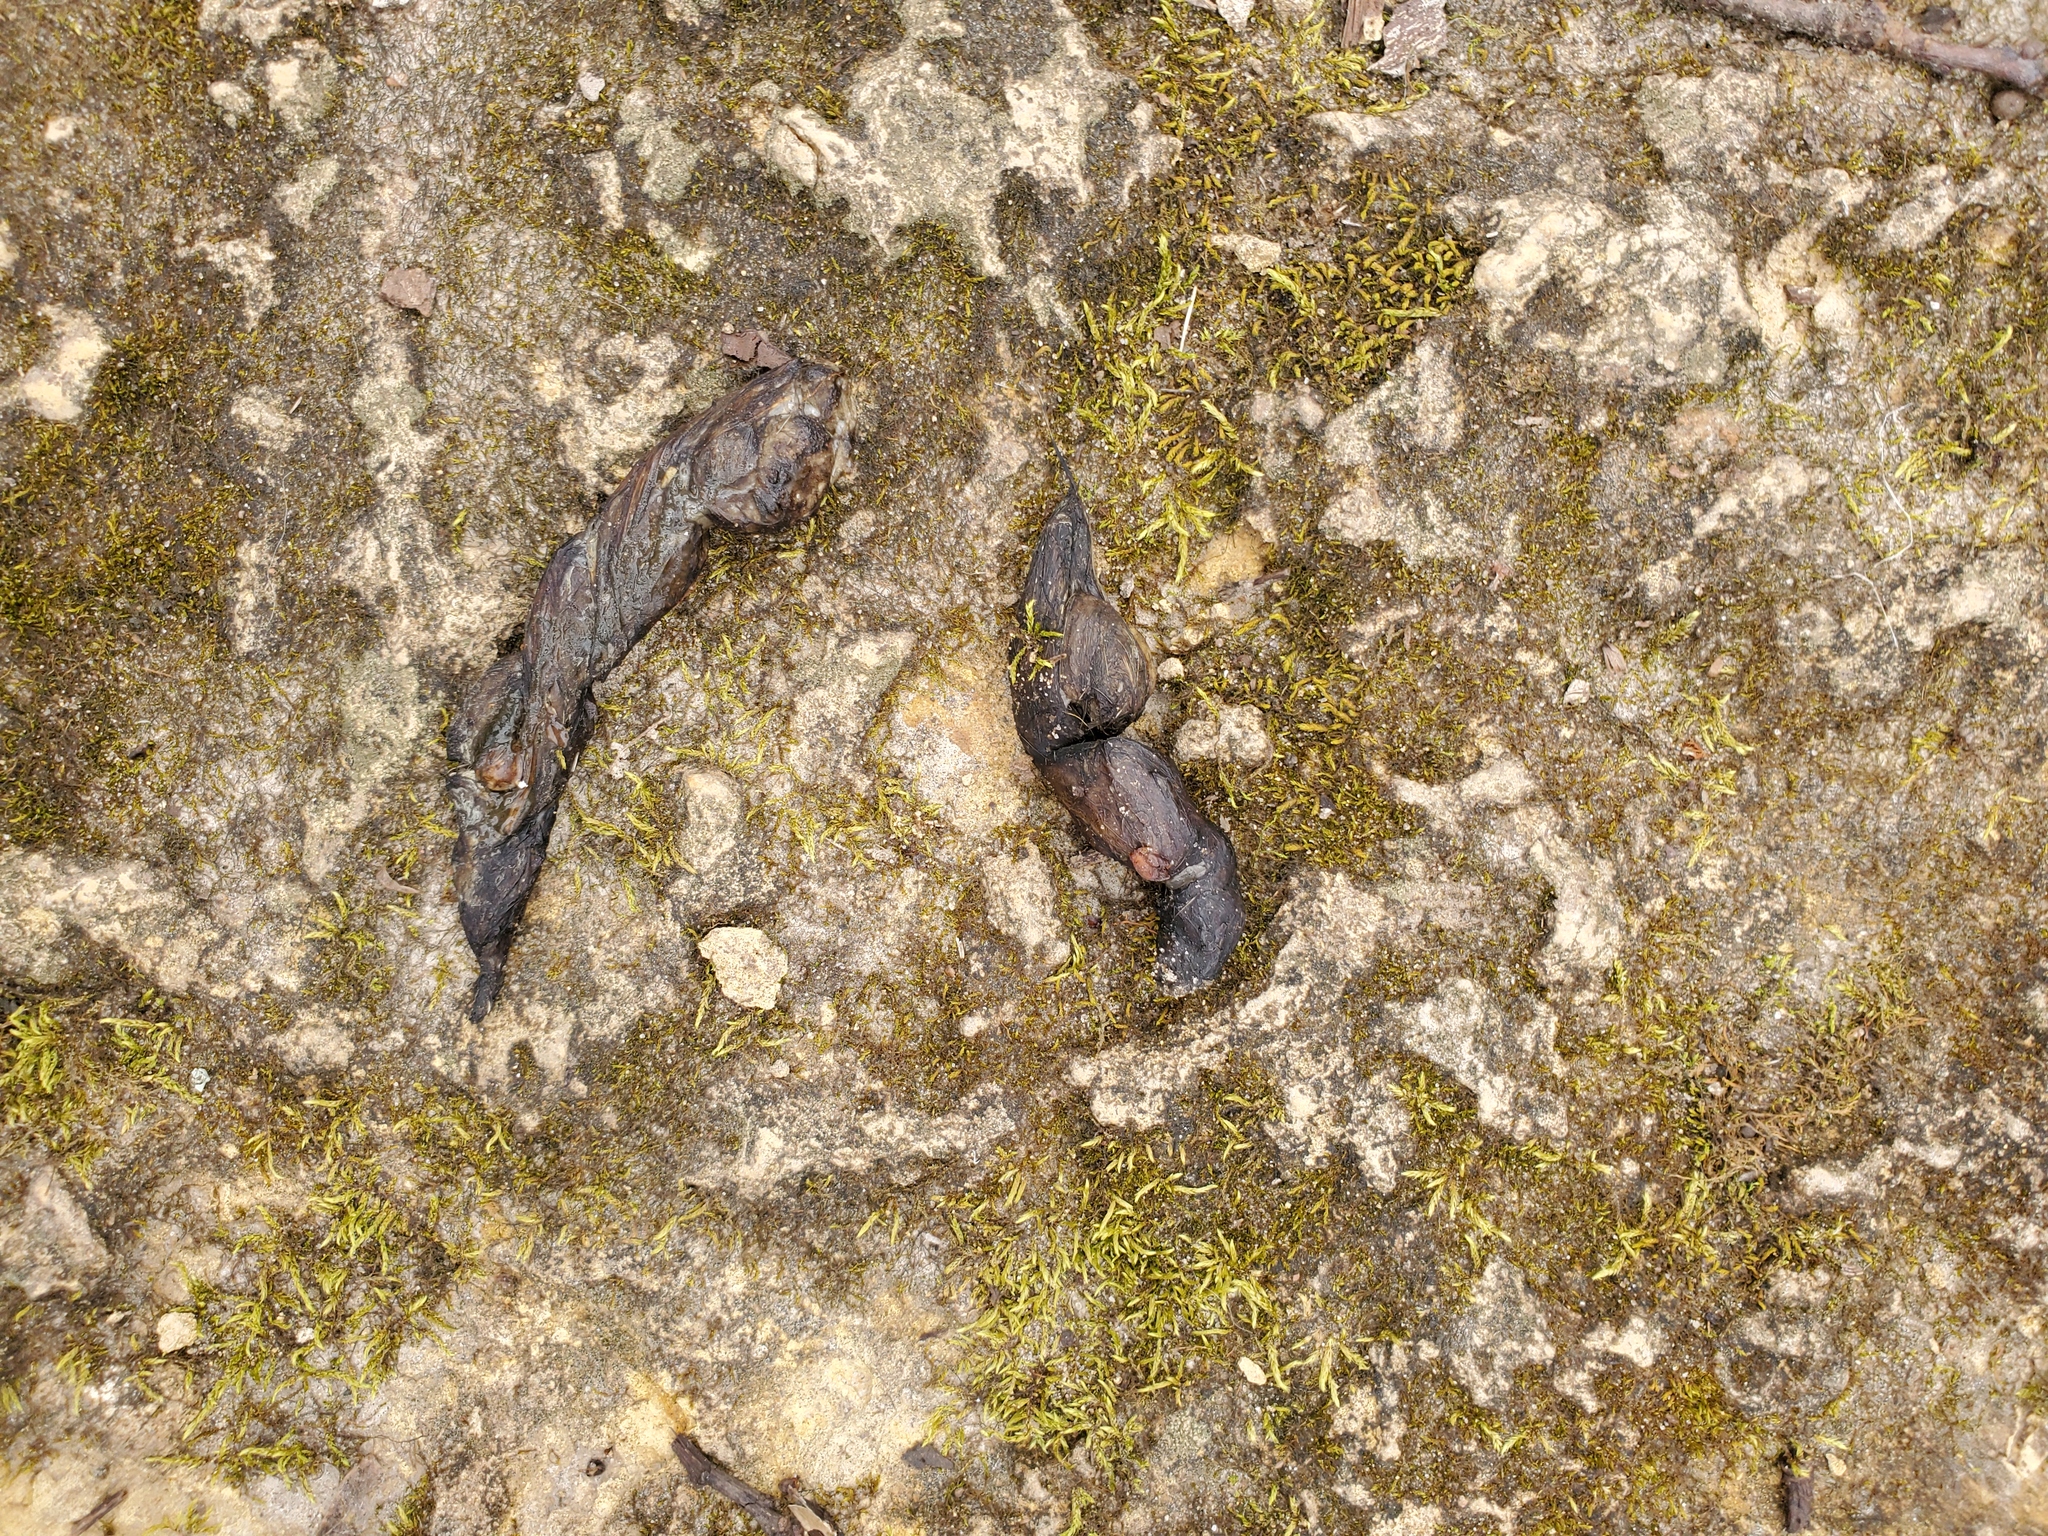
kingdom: Animalia
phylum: Chordata
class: Mammalia
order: Carnivora
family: Canidae
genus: Canis
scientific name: Canis latrans
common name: Coyote
